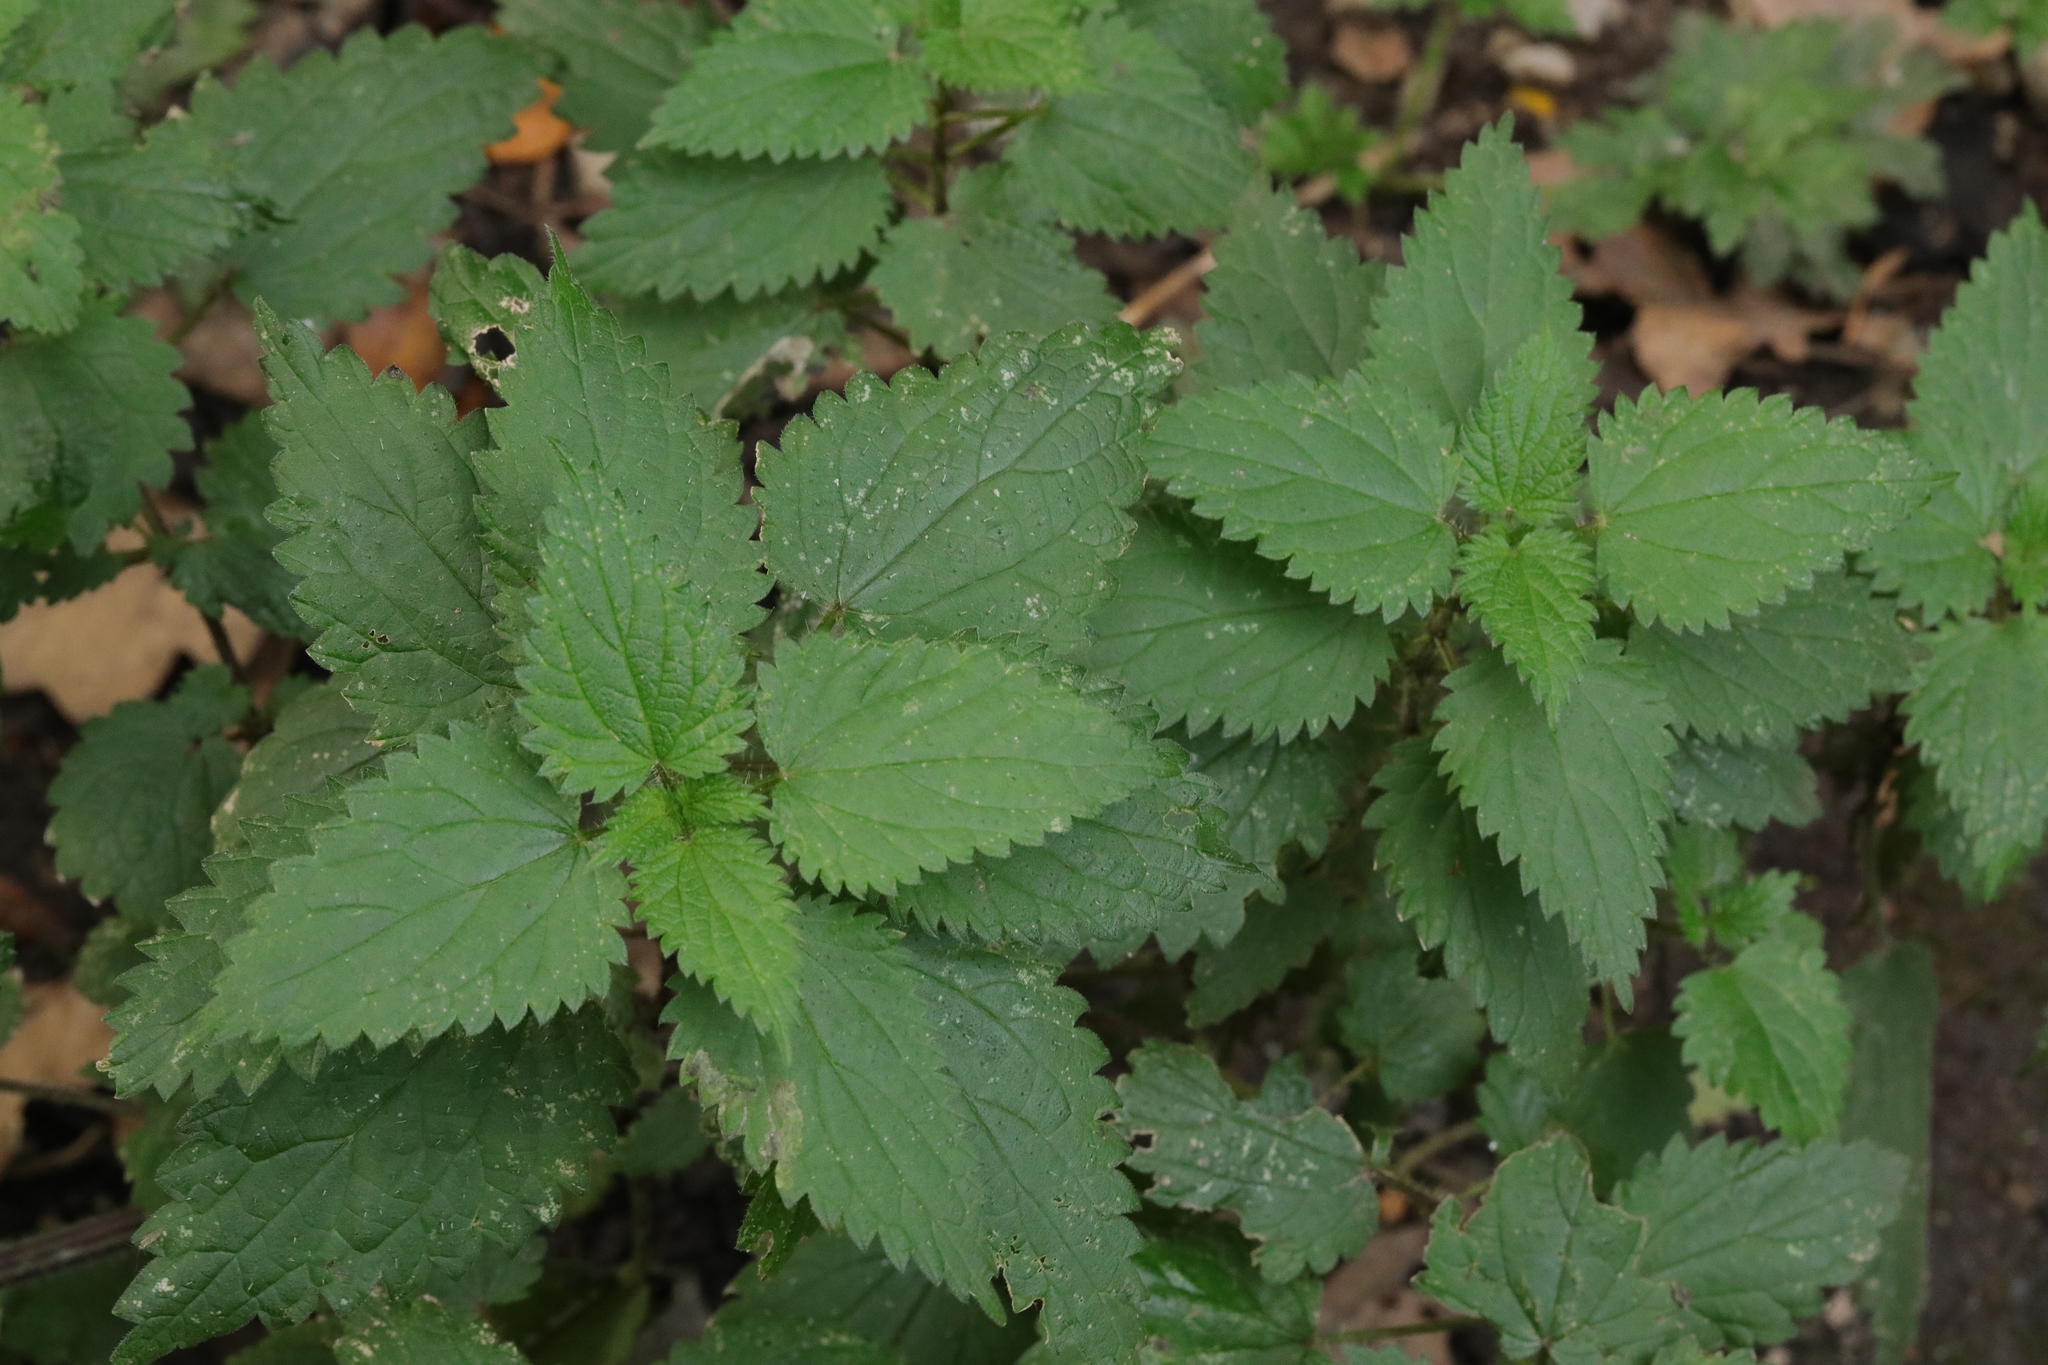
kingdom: Plantae
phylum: Tracheophyta
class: Magnoliopsida
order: Rosales
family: Urticaceae
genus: Urtica
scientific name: Urtica dioica
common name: Common nettle
